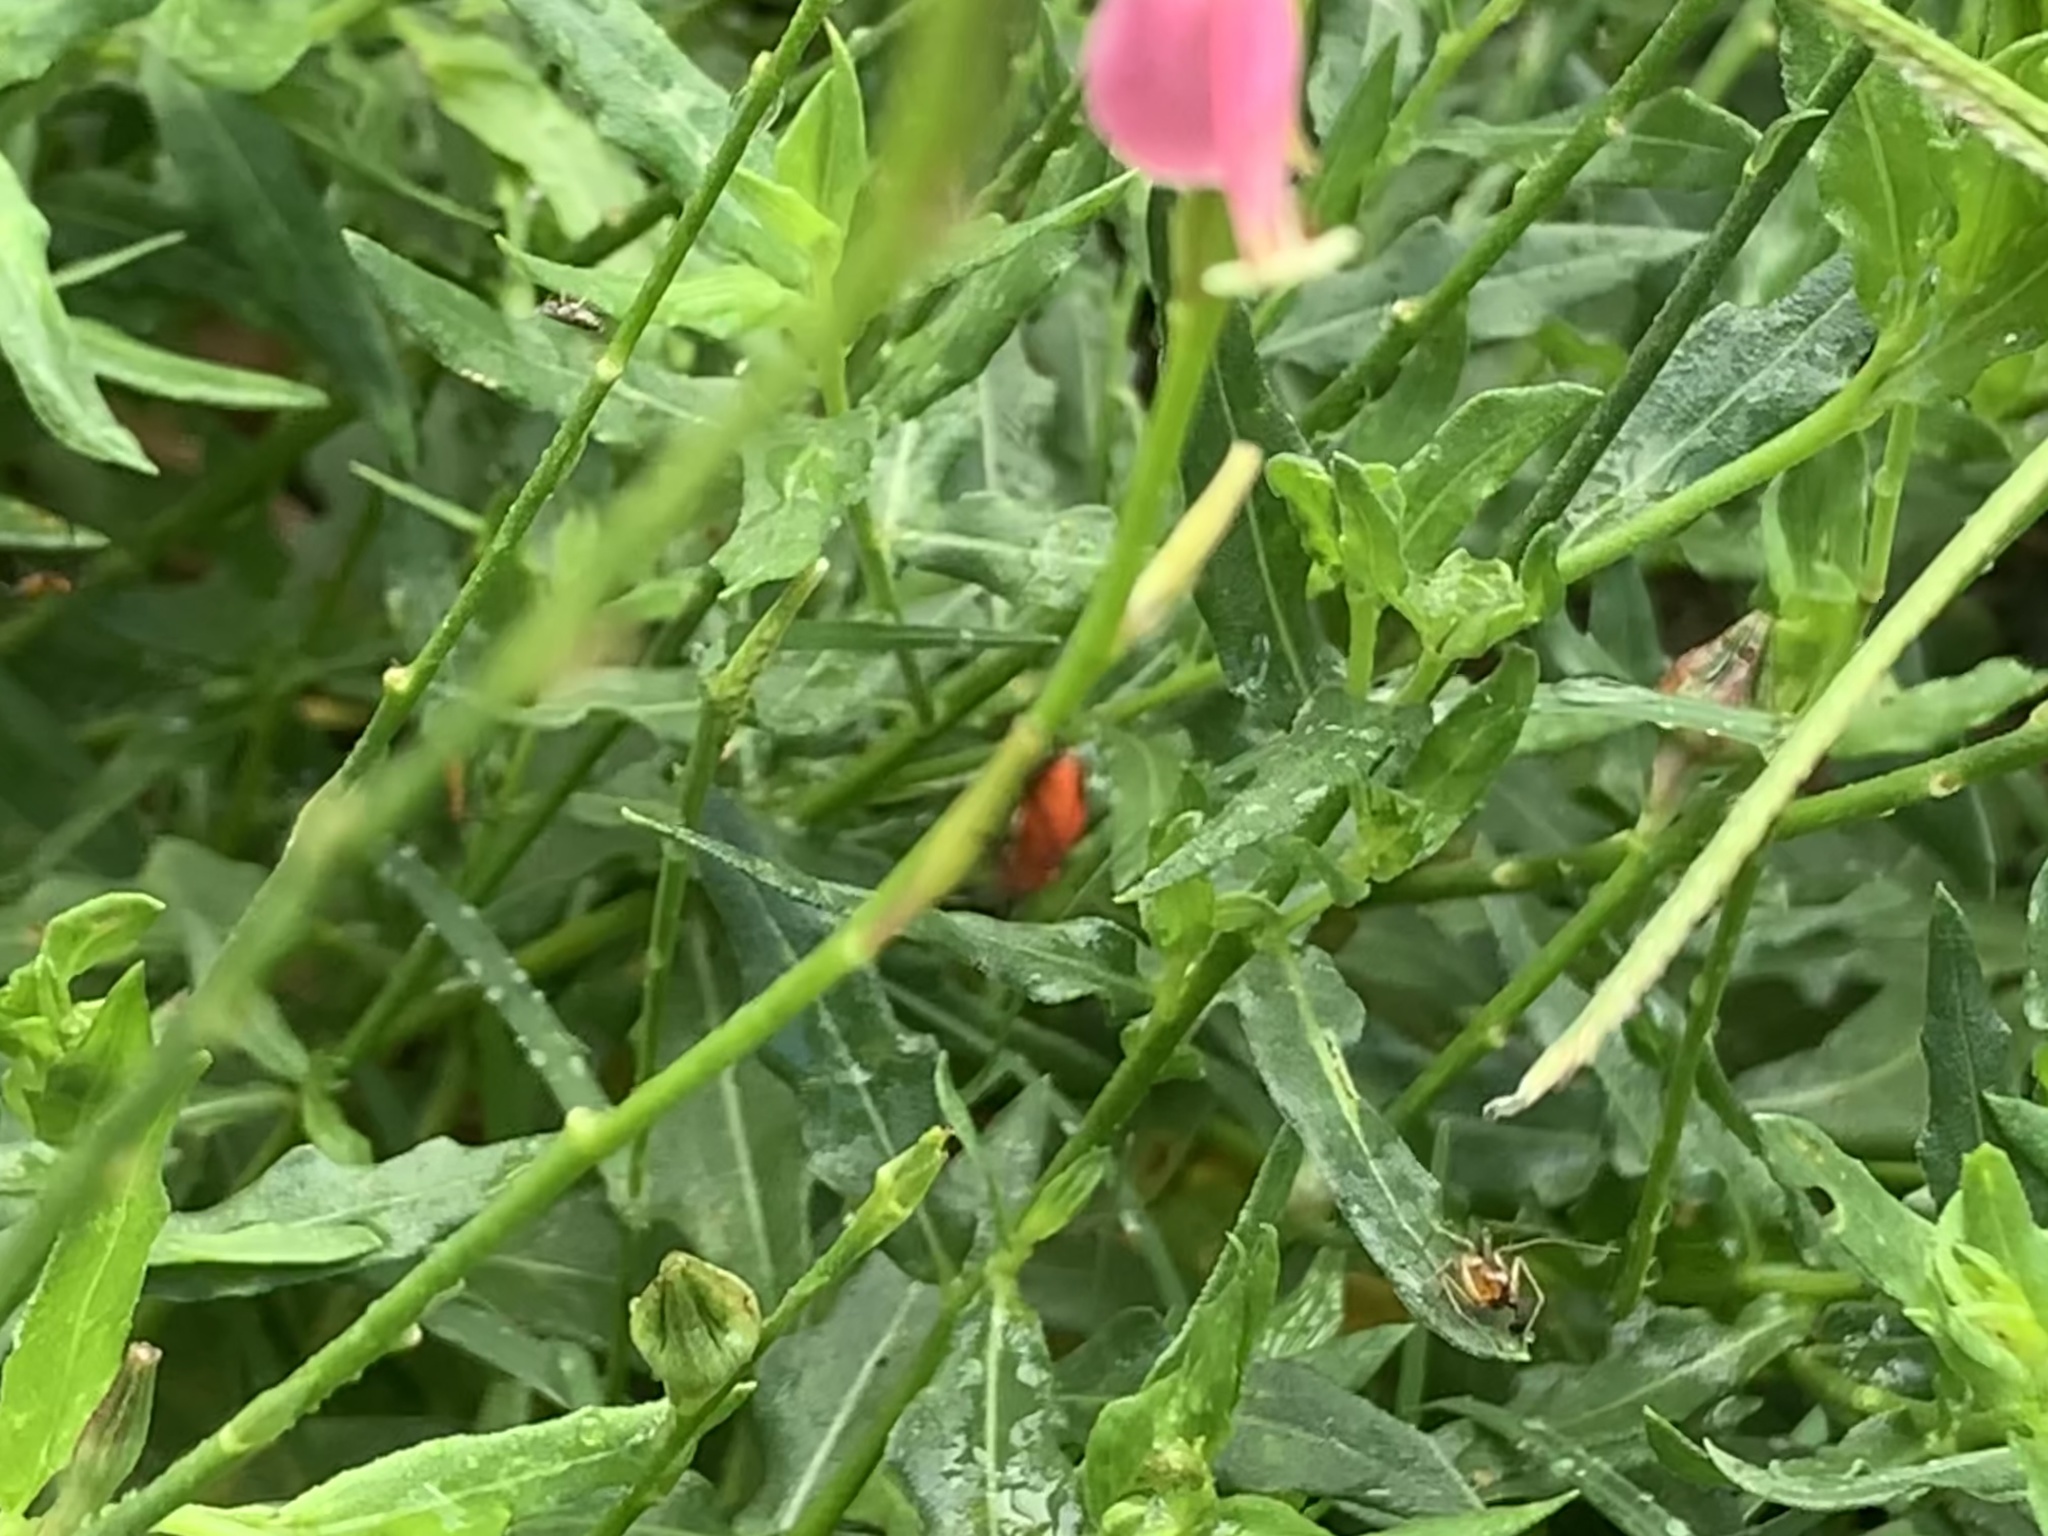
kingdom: Animalia
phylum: Arthropoda
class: Arachnida
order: Araneae
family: Oxyopidae
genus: Oxyopes
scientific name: Oxyopes salticus
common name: Lynx spiders
